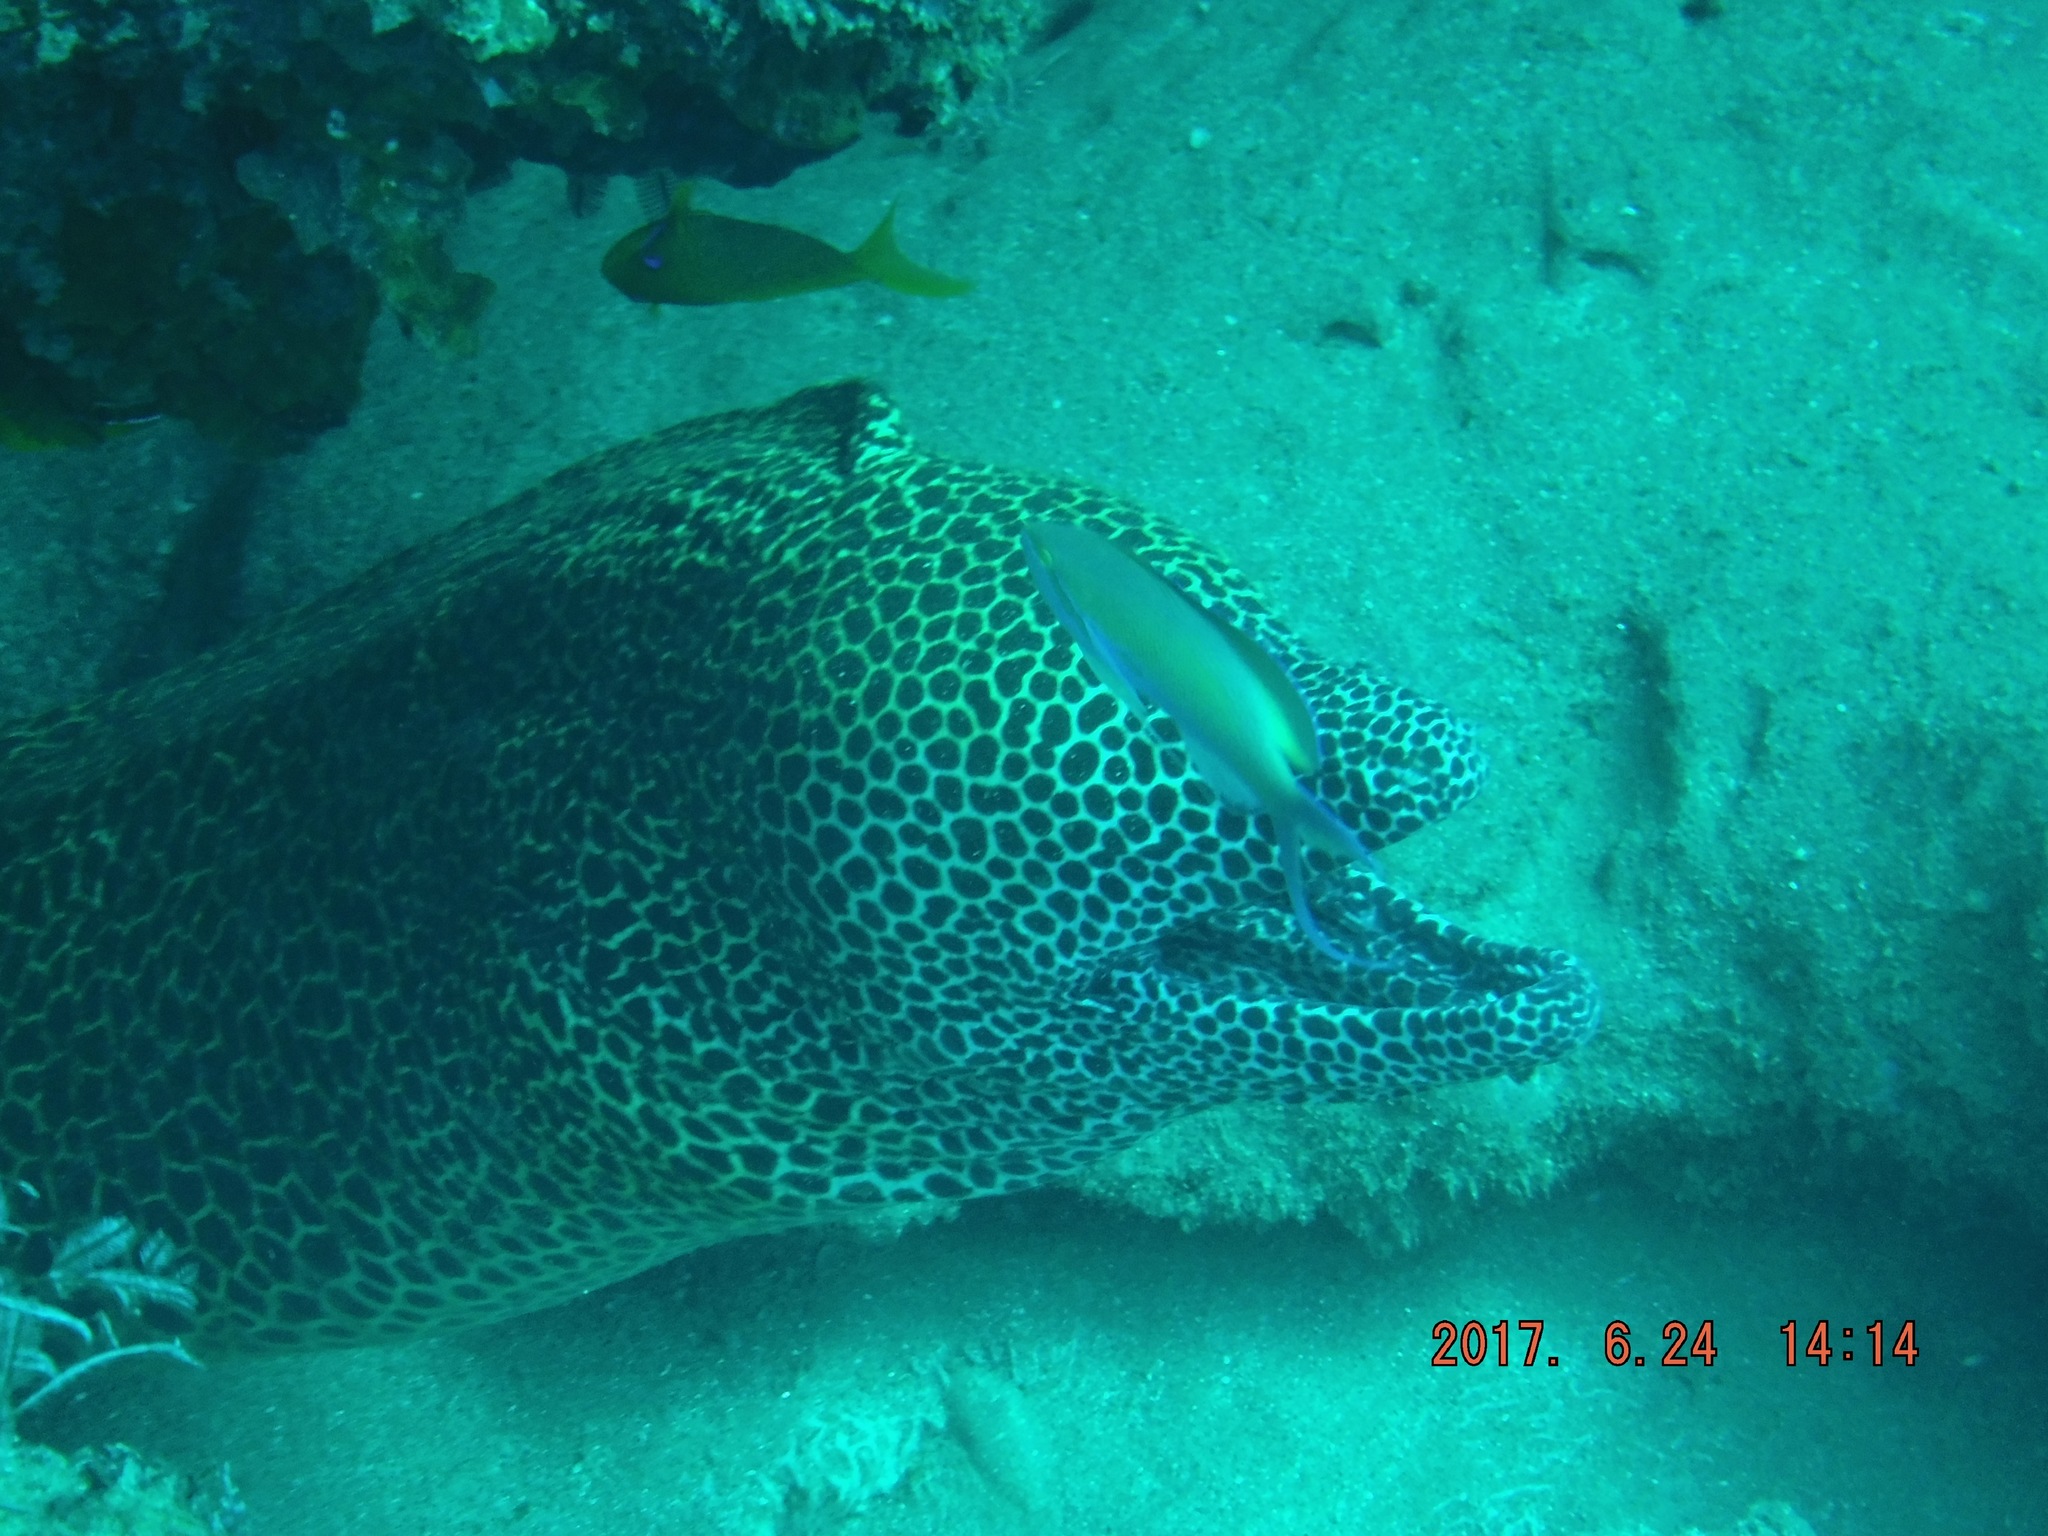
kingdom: Animalia
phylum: Chordata
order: Anguilliformes
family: Muraenidae
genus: Gymnothorax
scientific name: Gymnothorax favagineus
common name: Honeycomb moray
